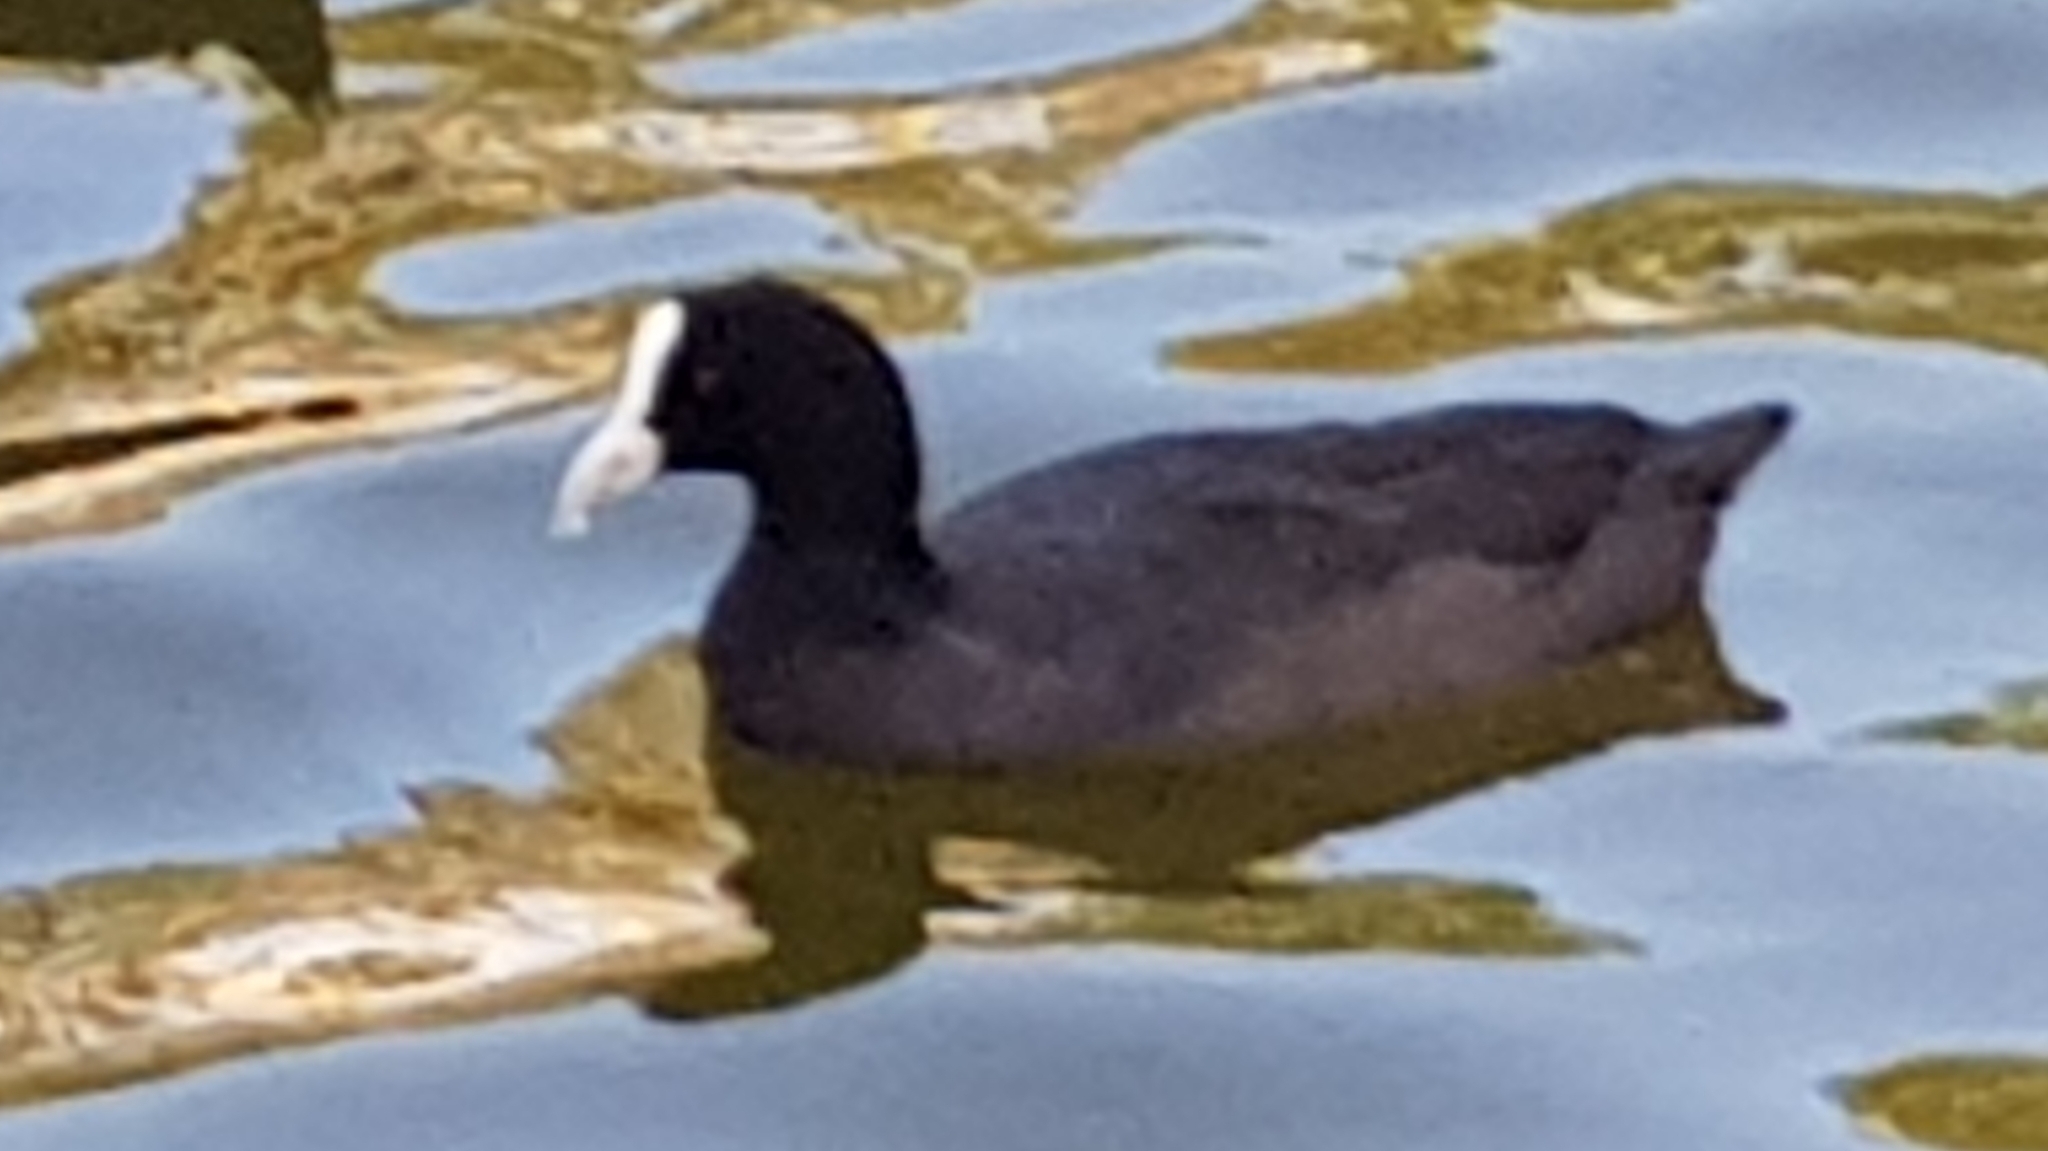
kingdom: Animalia
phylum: Chordata
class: Aves
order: Gruiformes
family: Rallidae
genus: Fulica
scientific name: Fulica atra
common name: Eurasian coot
